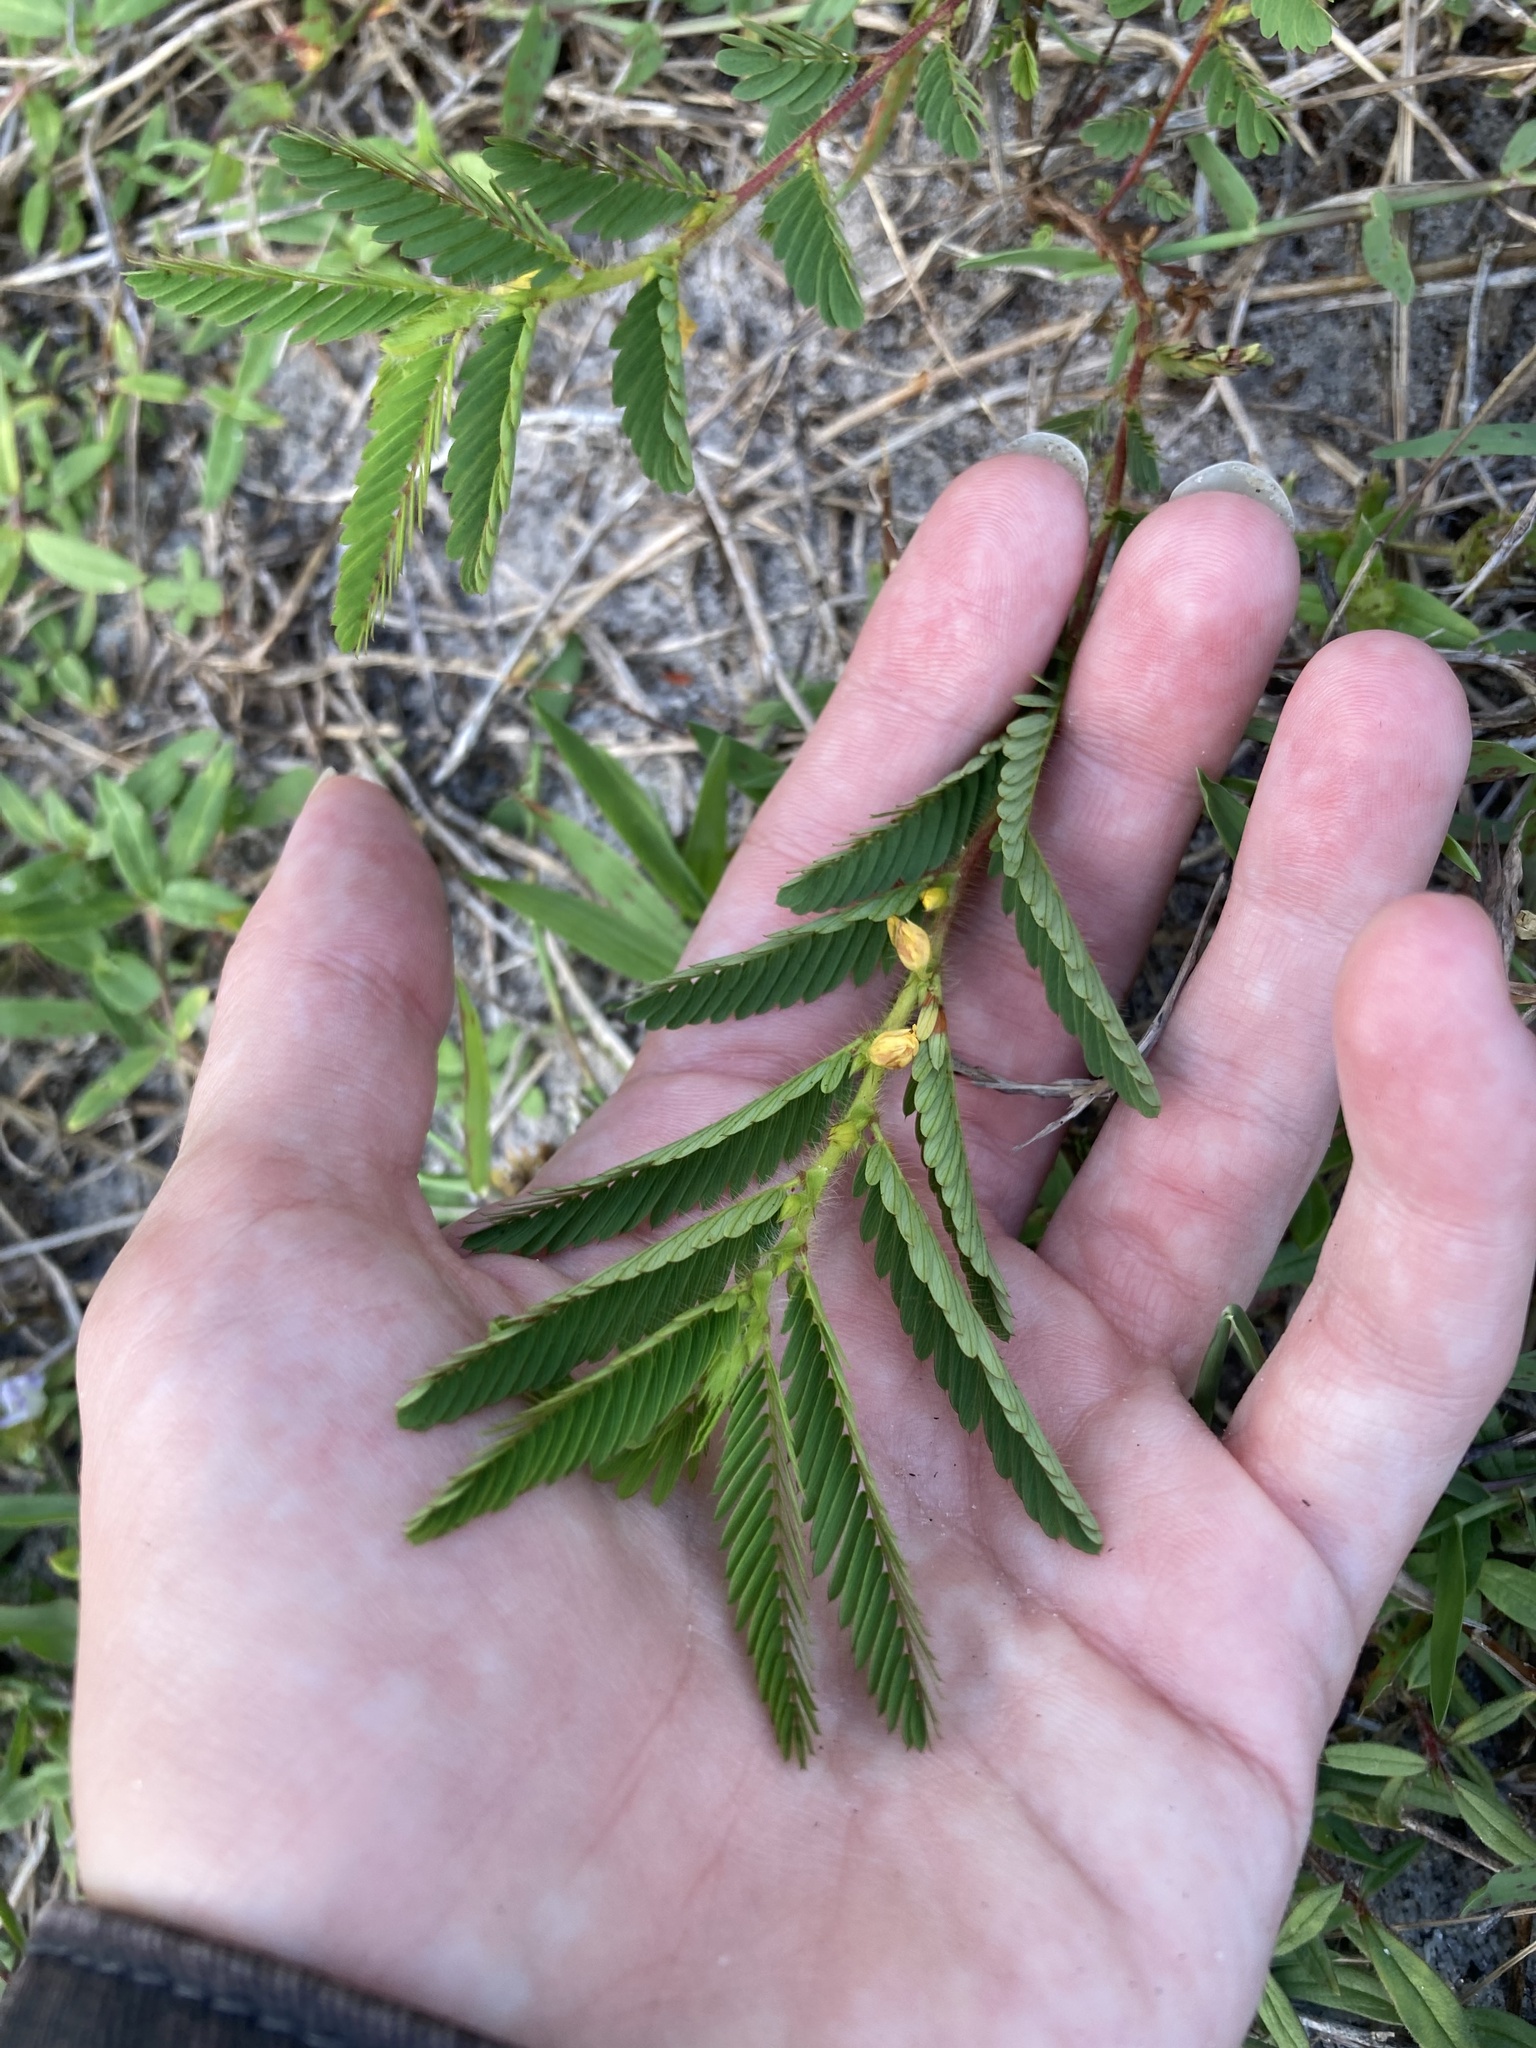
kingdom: Plantae
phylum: Tracheophyta
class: Magnoliopsida
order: Fabales
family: Fabaceae
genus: Chamaecrista
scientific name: Chamaecrista nictitans
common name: Sensitive cassia
